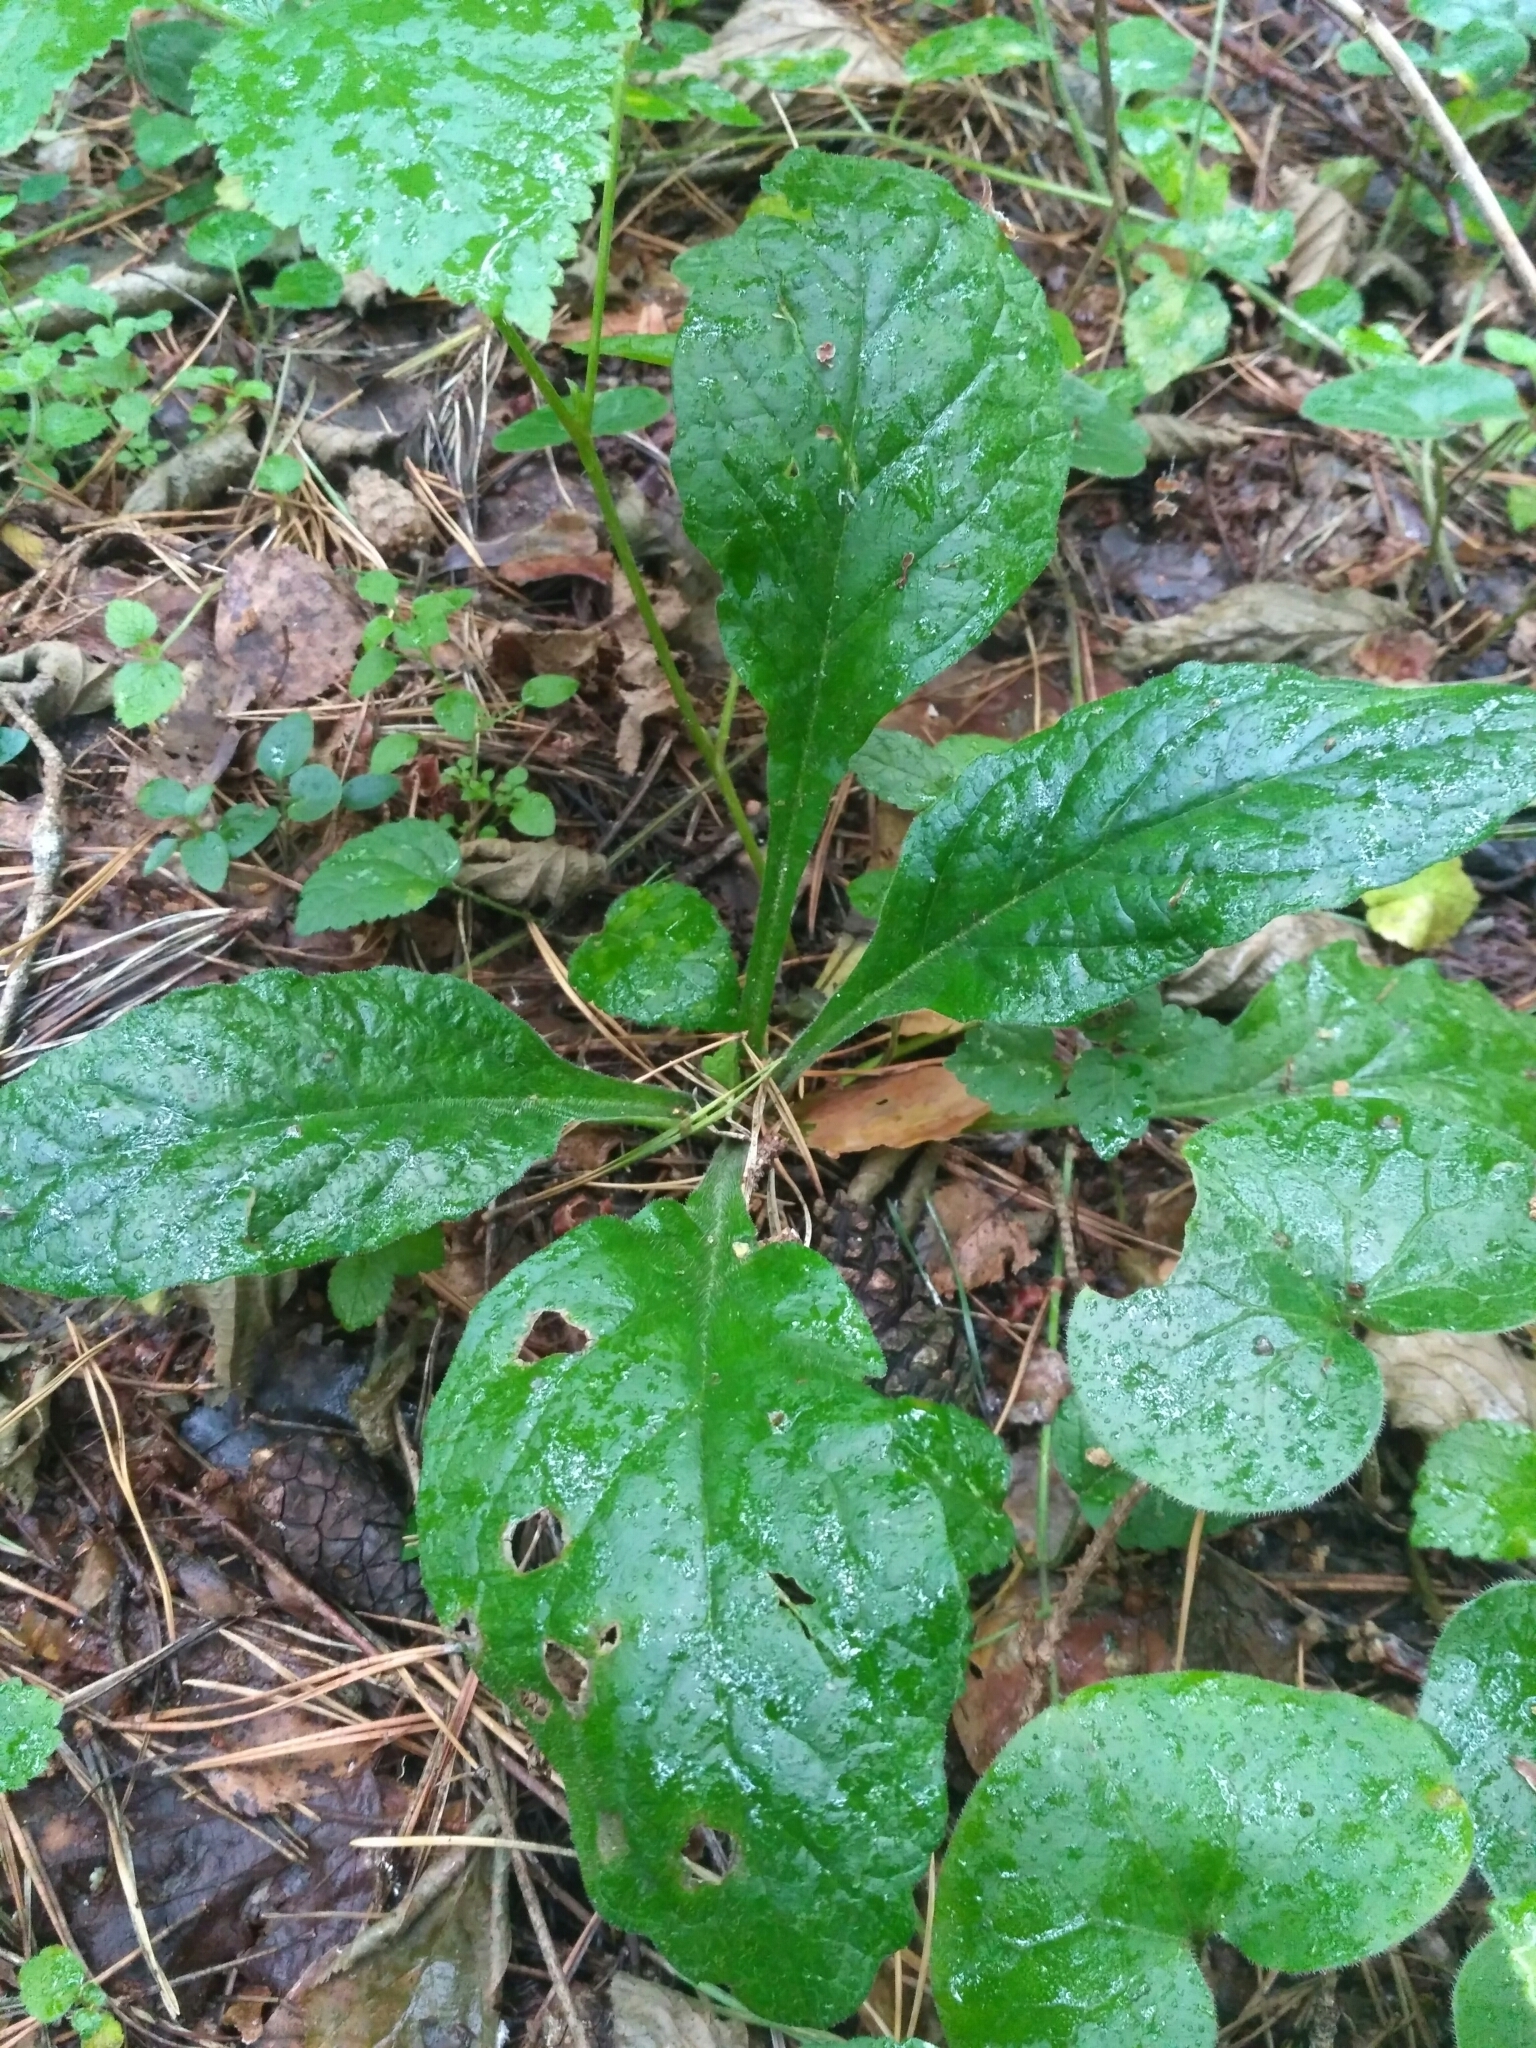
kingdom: Plantae
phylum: Tracheophyta
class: Magnoliopsida
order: Lamiales
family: Lamiaceae
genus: Ajuga
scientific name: Ajuga reptans
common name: Bugle
